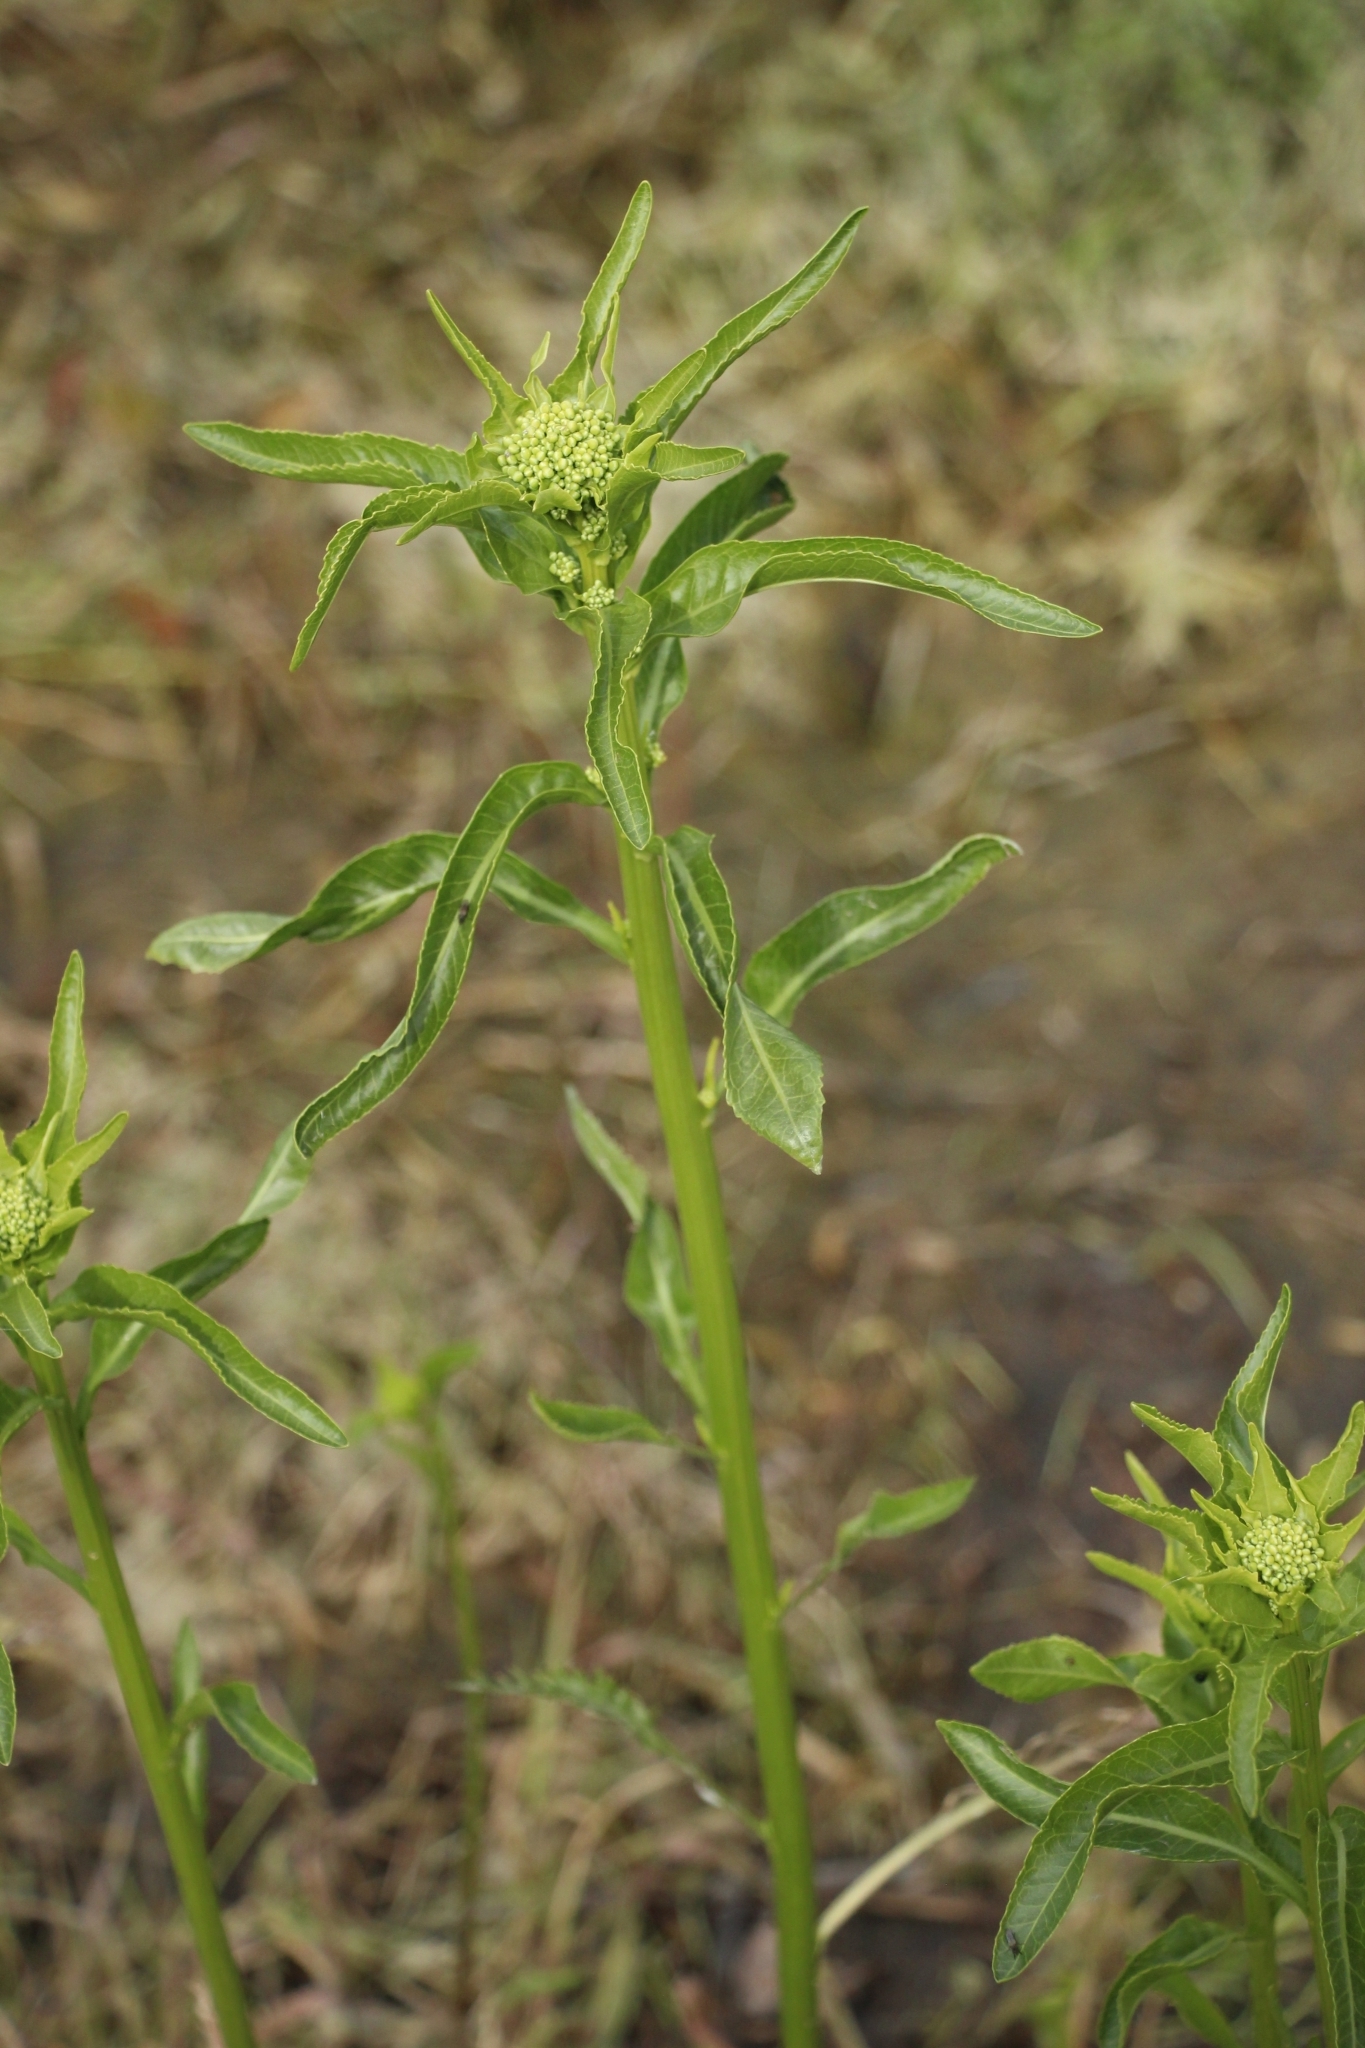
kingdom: Plantae
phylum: Tracheophyta
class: Magnoliopsida
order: Brassicales
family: Brassicaceae
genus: Rorippa
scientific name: Rorippa austriaca
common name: Austrian yellow-cress
